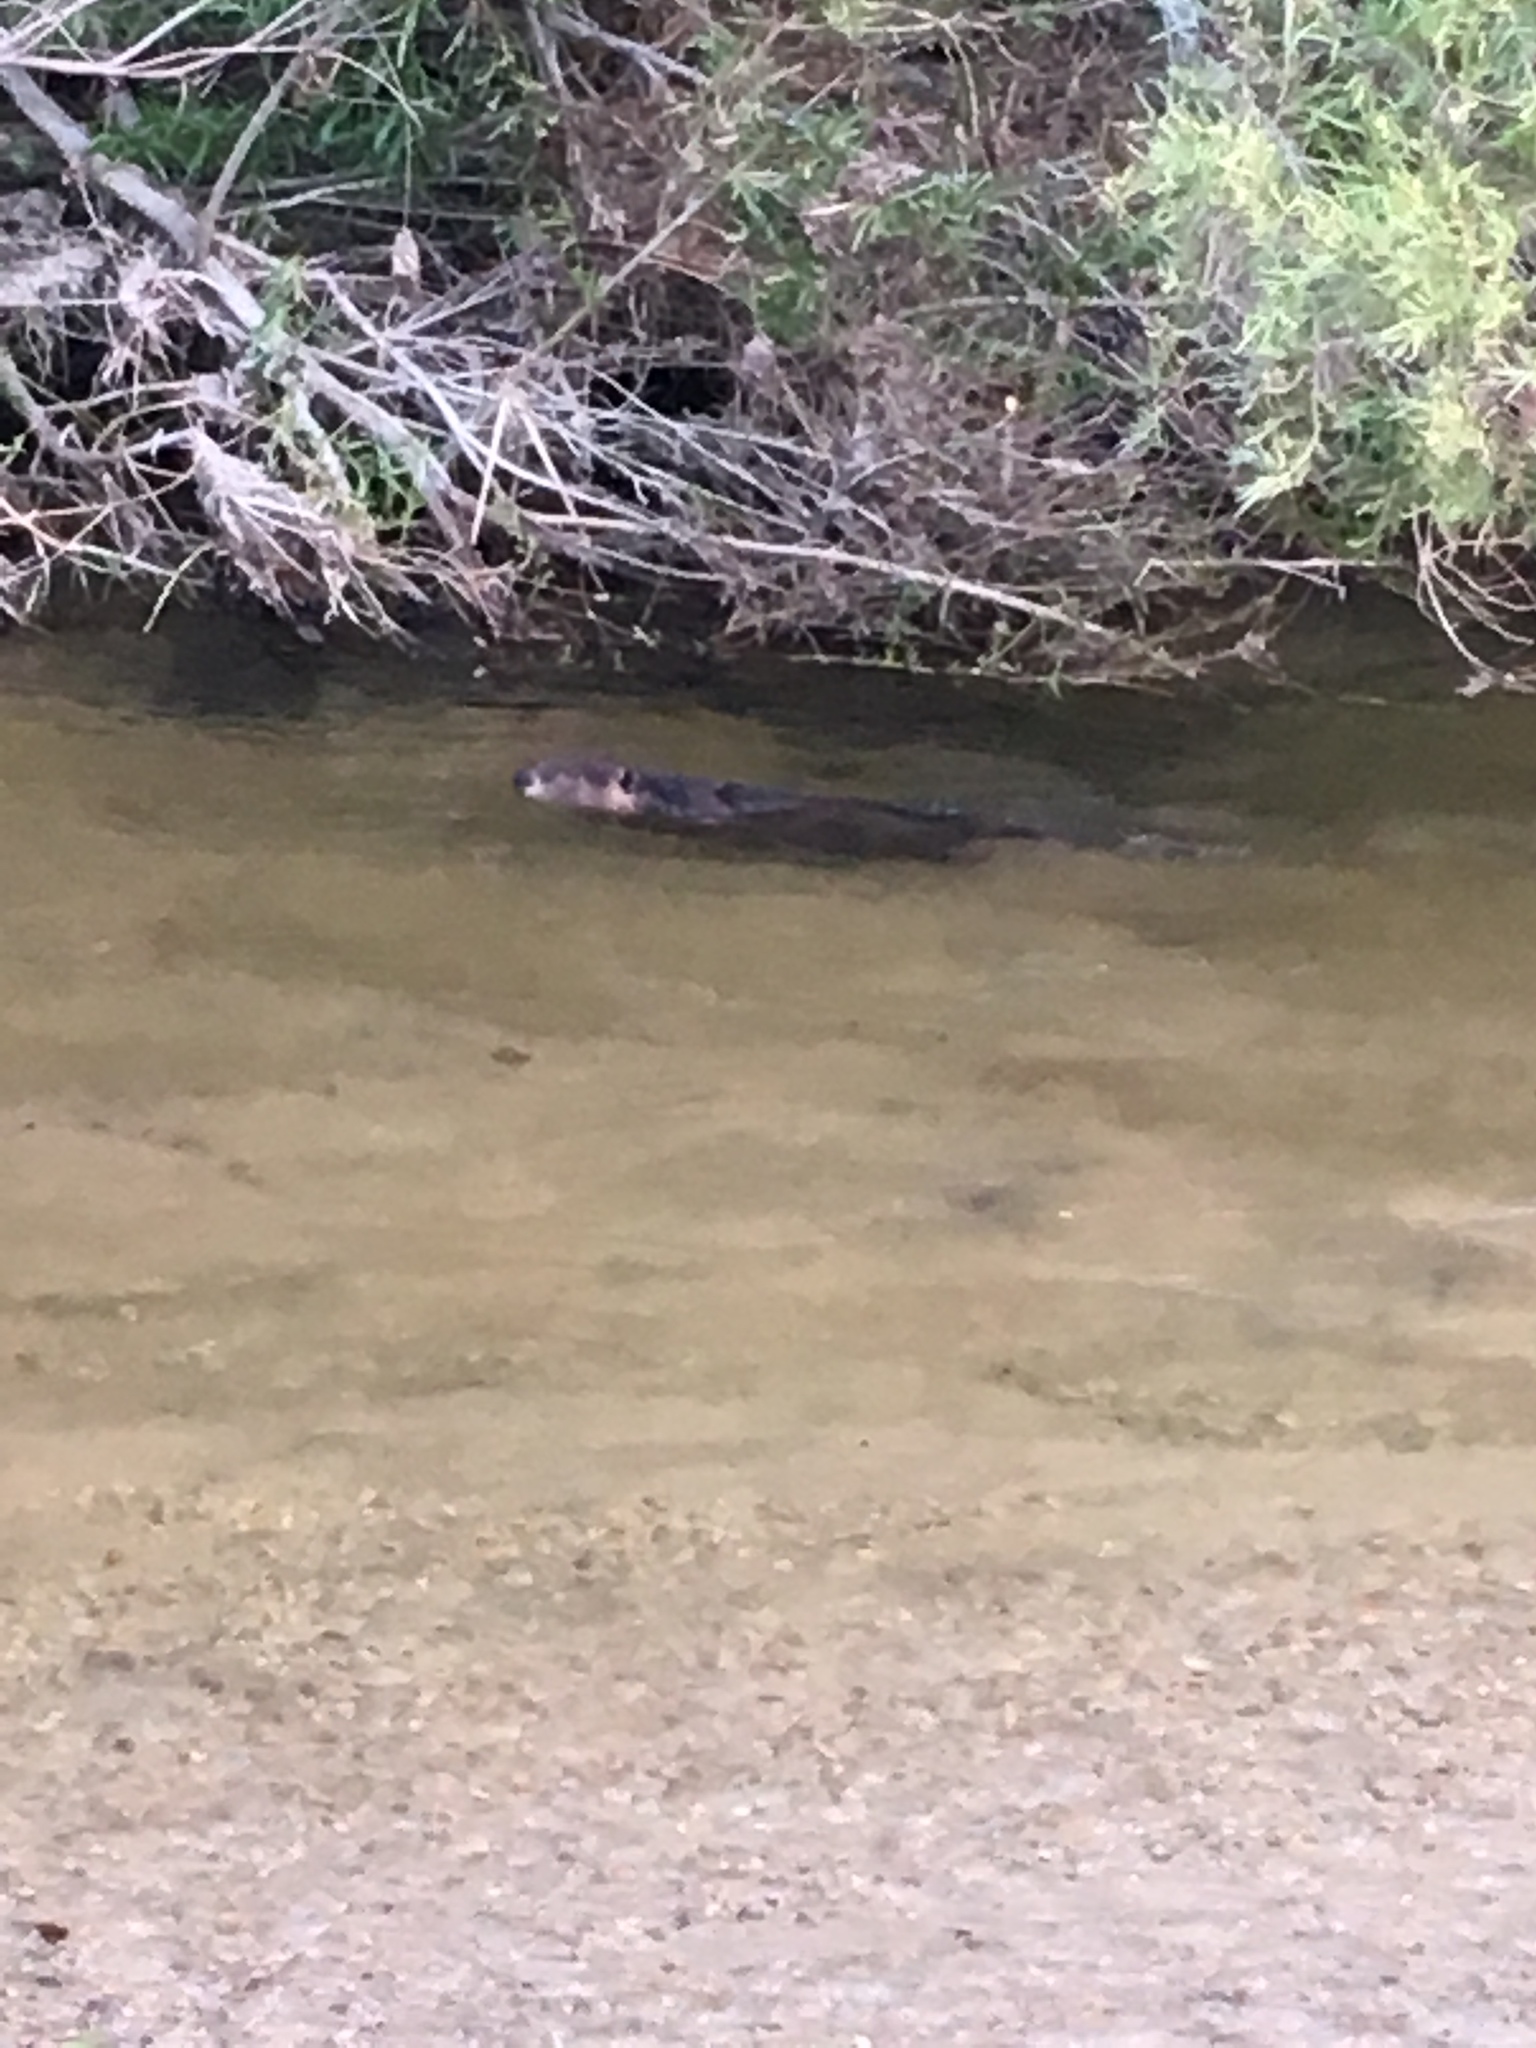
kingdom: Animalia
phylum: Chordata
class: Mammalia
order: Rodentia
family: Castoridae
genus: Castor
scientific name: Castor canadensis
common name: American beaver
